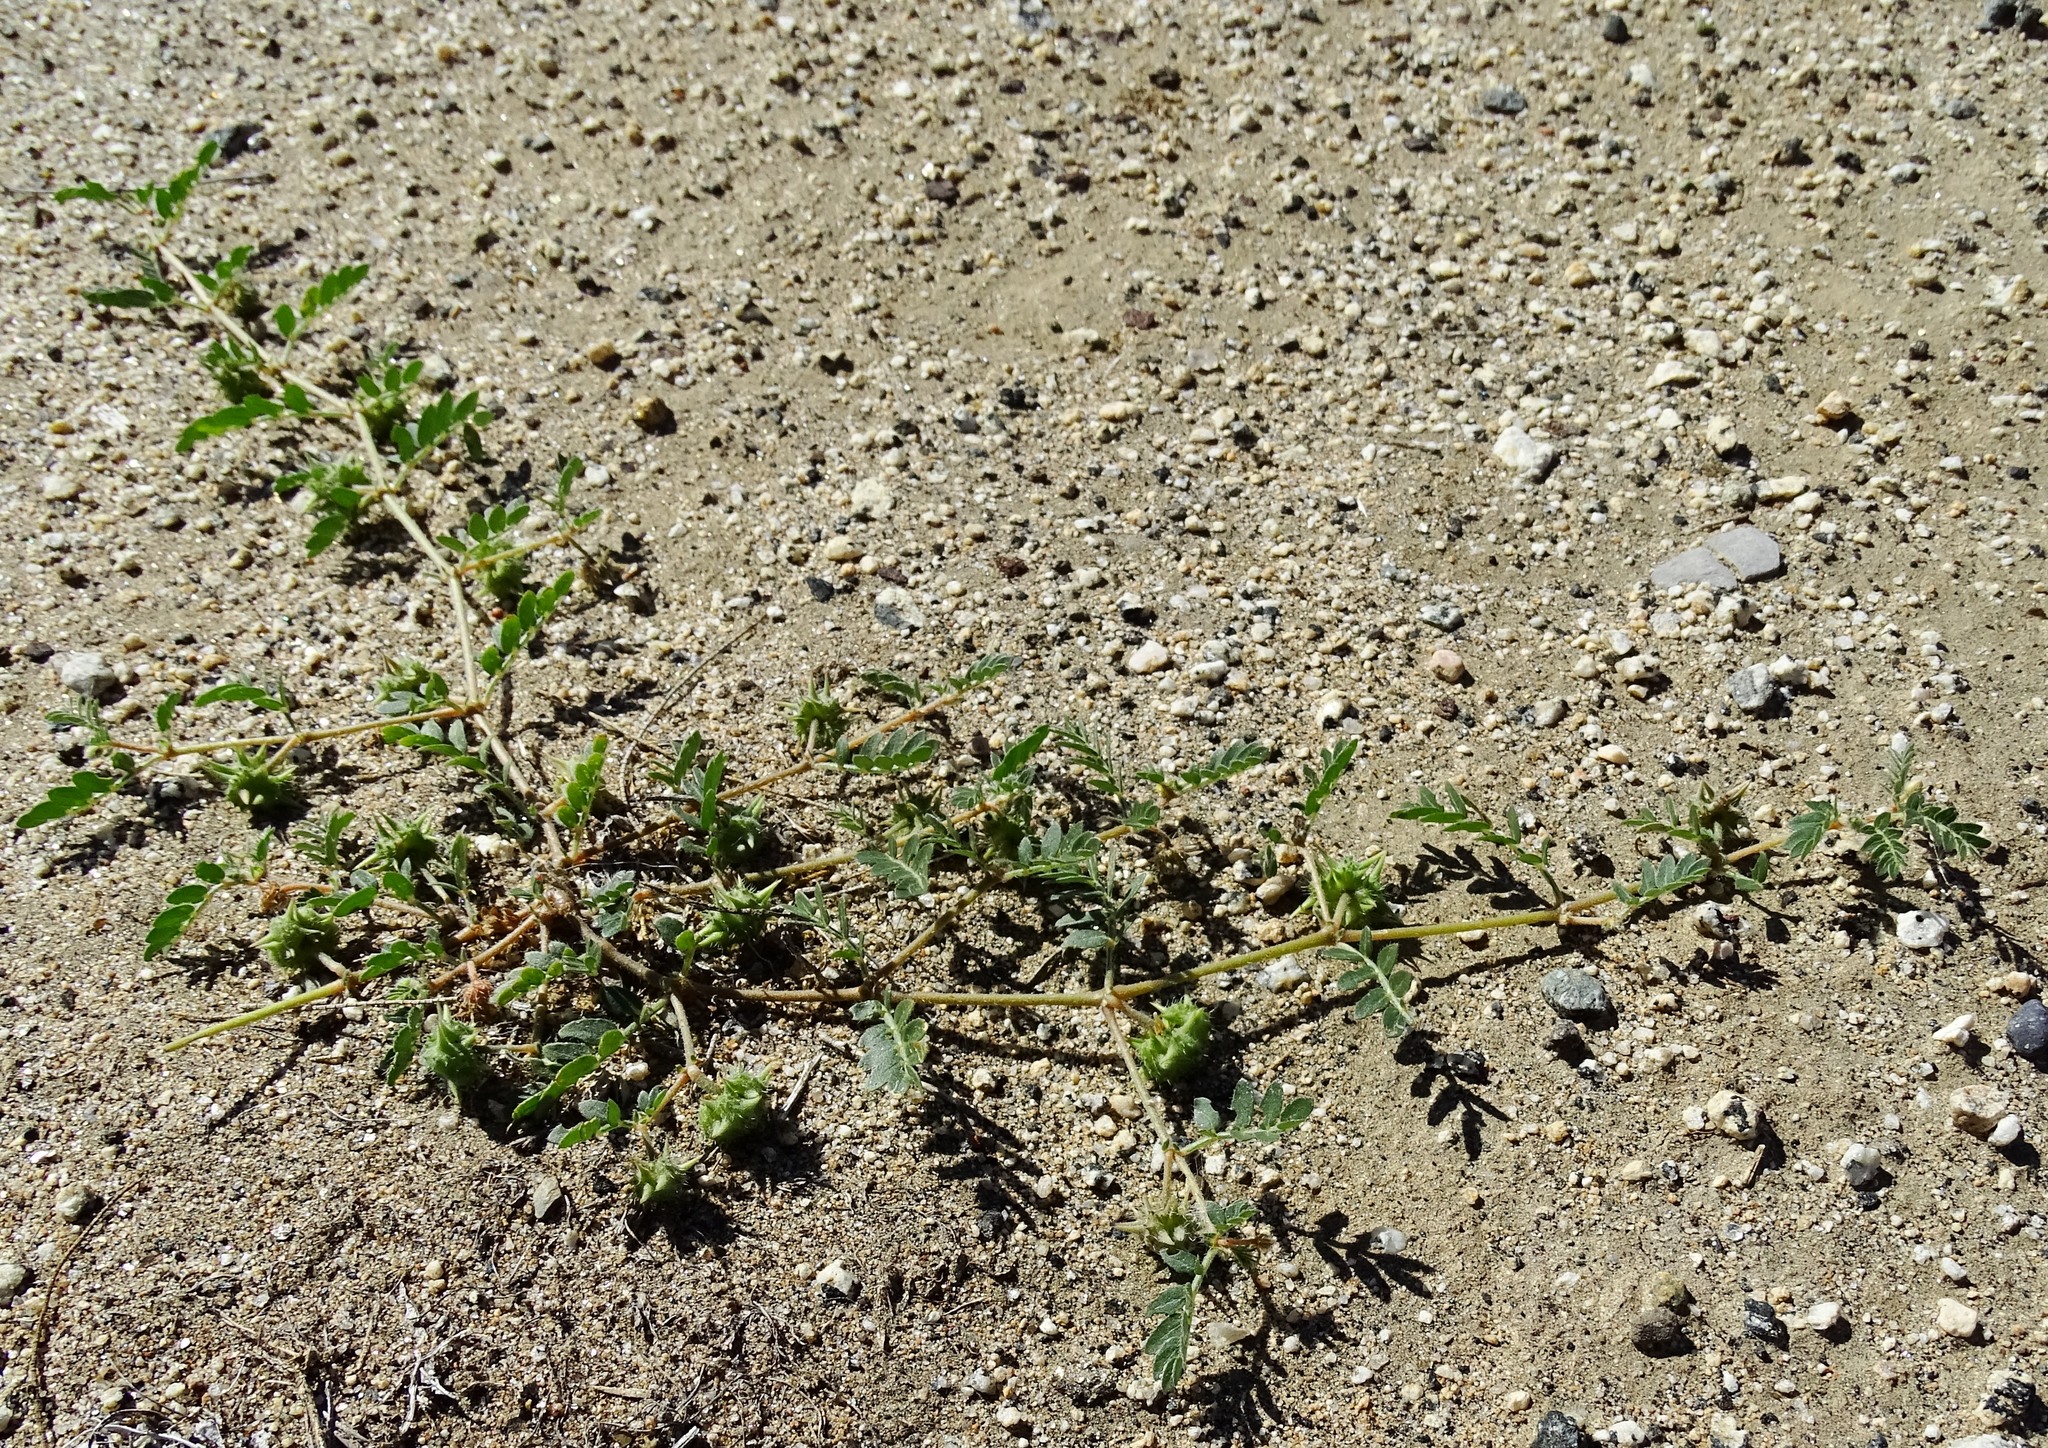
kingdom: Plantae
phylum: Tracheophyta
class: Magnoliopsida
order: Zygophyllales
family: Zygophyllaceae
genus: Tribulus
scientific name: Tribulus terrestris
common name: Puncturevine
